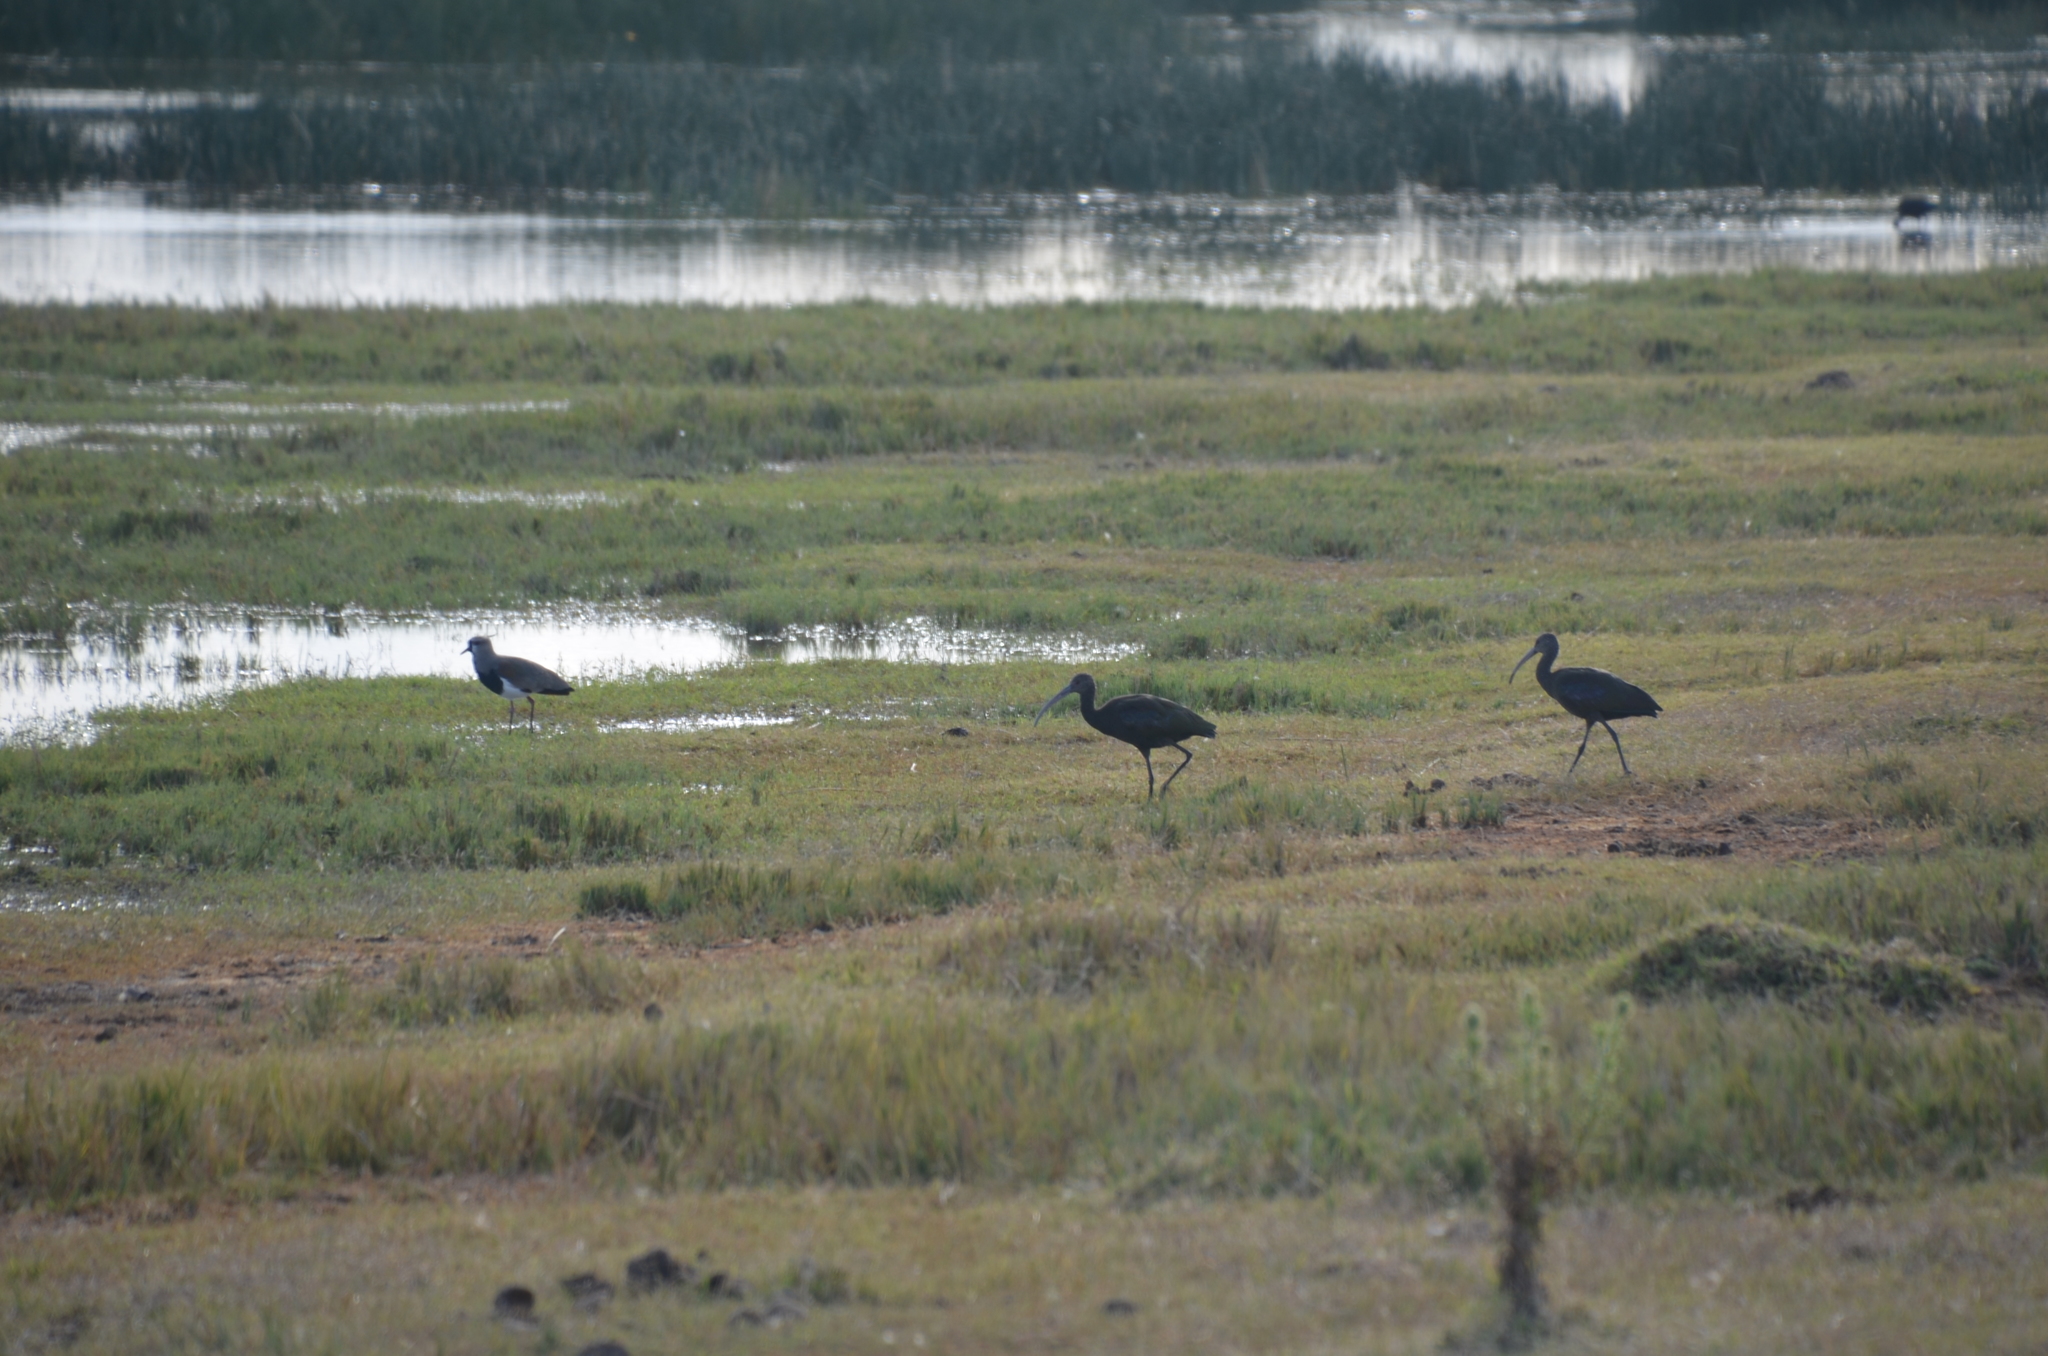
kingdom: Animalia
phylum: Chordata
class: Aves
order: Pelecaniformes
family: Threskiornithidae
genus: Plegadis
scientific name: Plegadis chihi
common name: White-faced ibis
